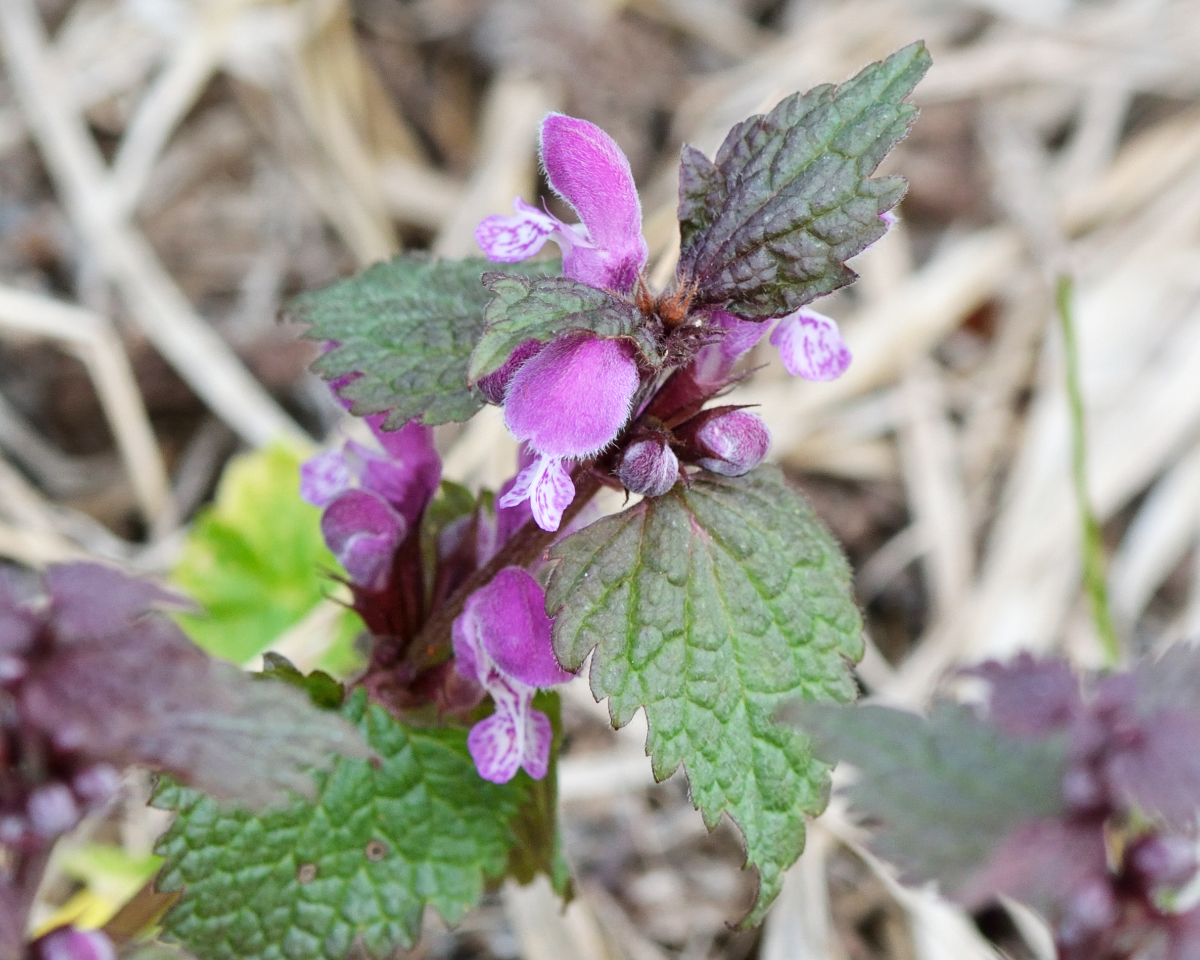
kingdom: Plantae
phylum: Tracheophyta
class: Magnoliopsida
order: Lamiales
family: Lamiaceae
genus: Lamium
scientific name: Lamium maculatum
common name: Spotted dead-nettle
